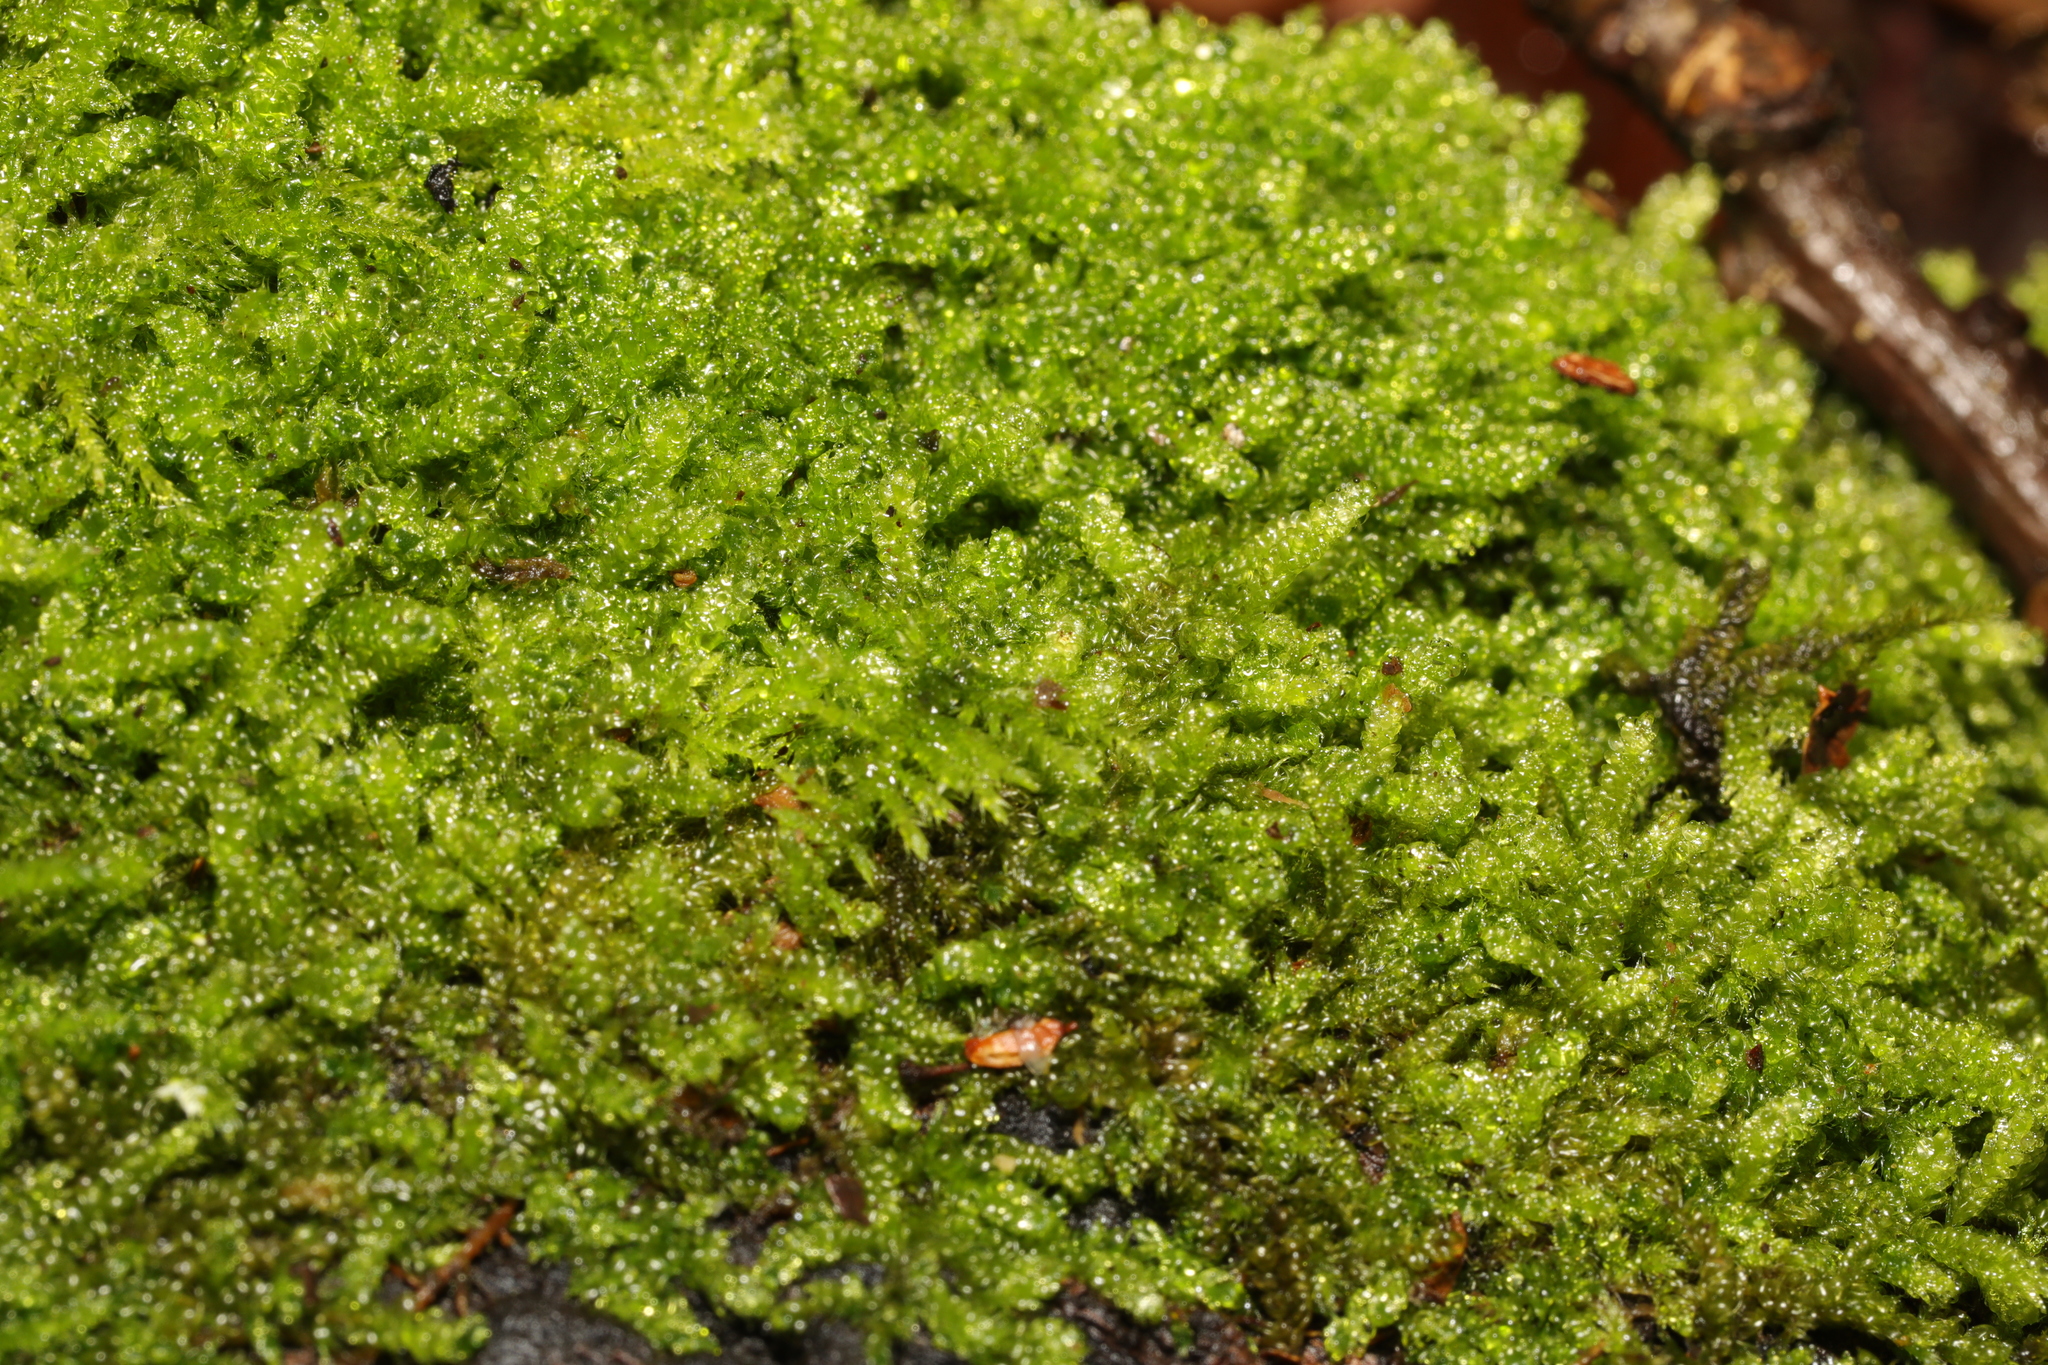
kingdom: Plantae
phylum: Bryophyta
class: Bryopsida
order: Hypnales
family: Hypnaceae
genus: Hypnum
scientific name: Hypnum cupressiforme
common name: Cypress-leaved plait-moss
